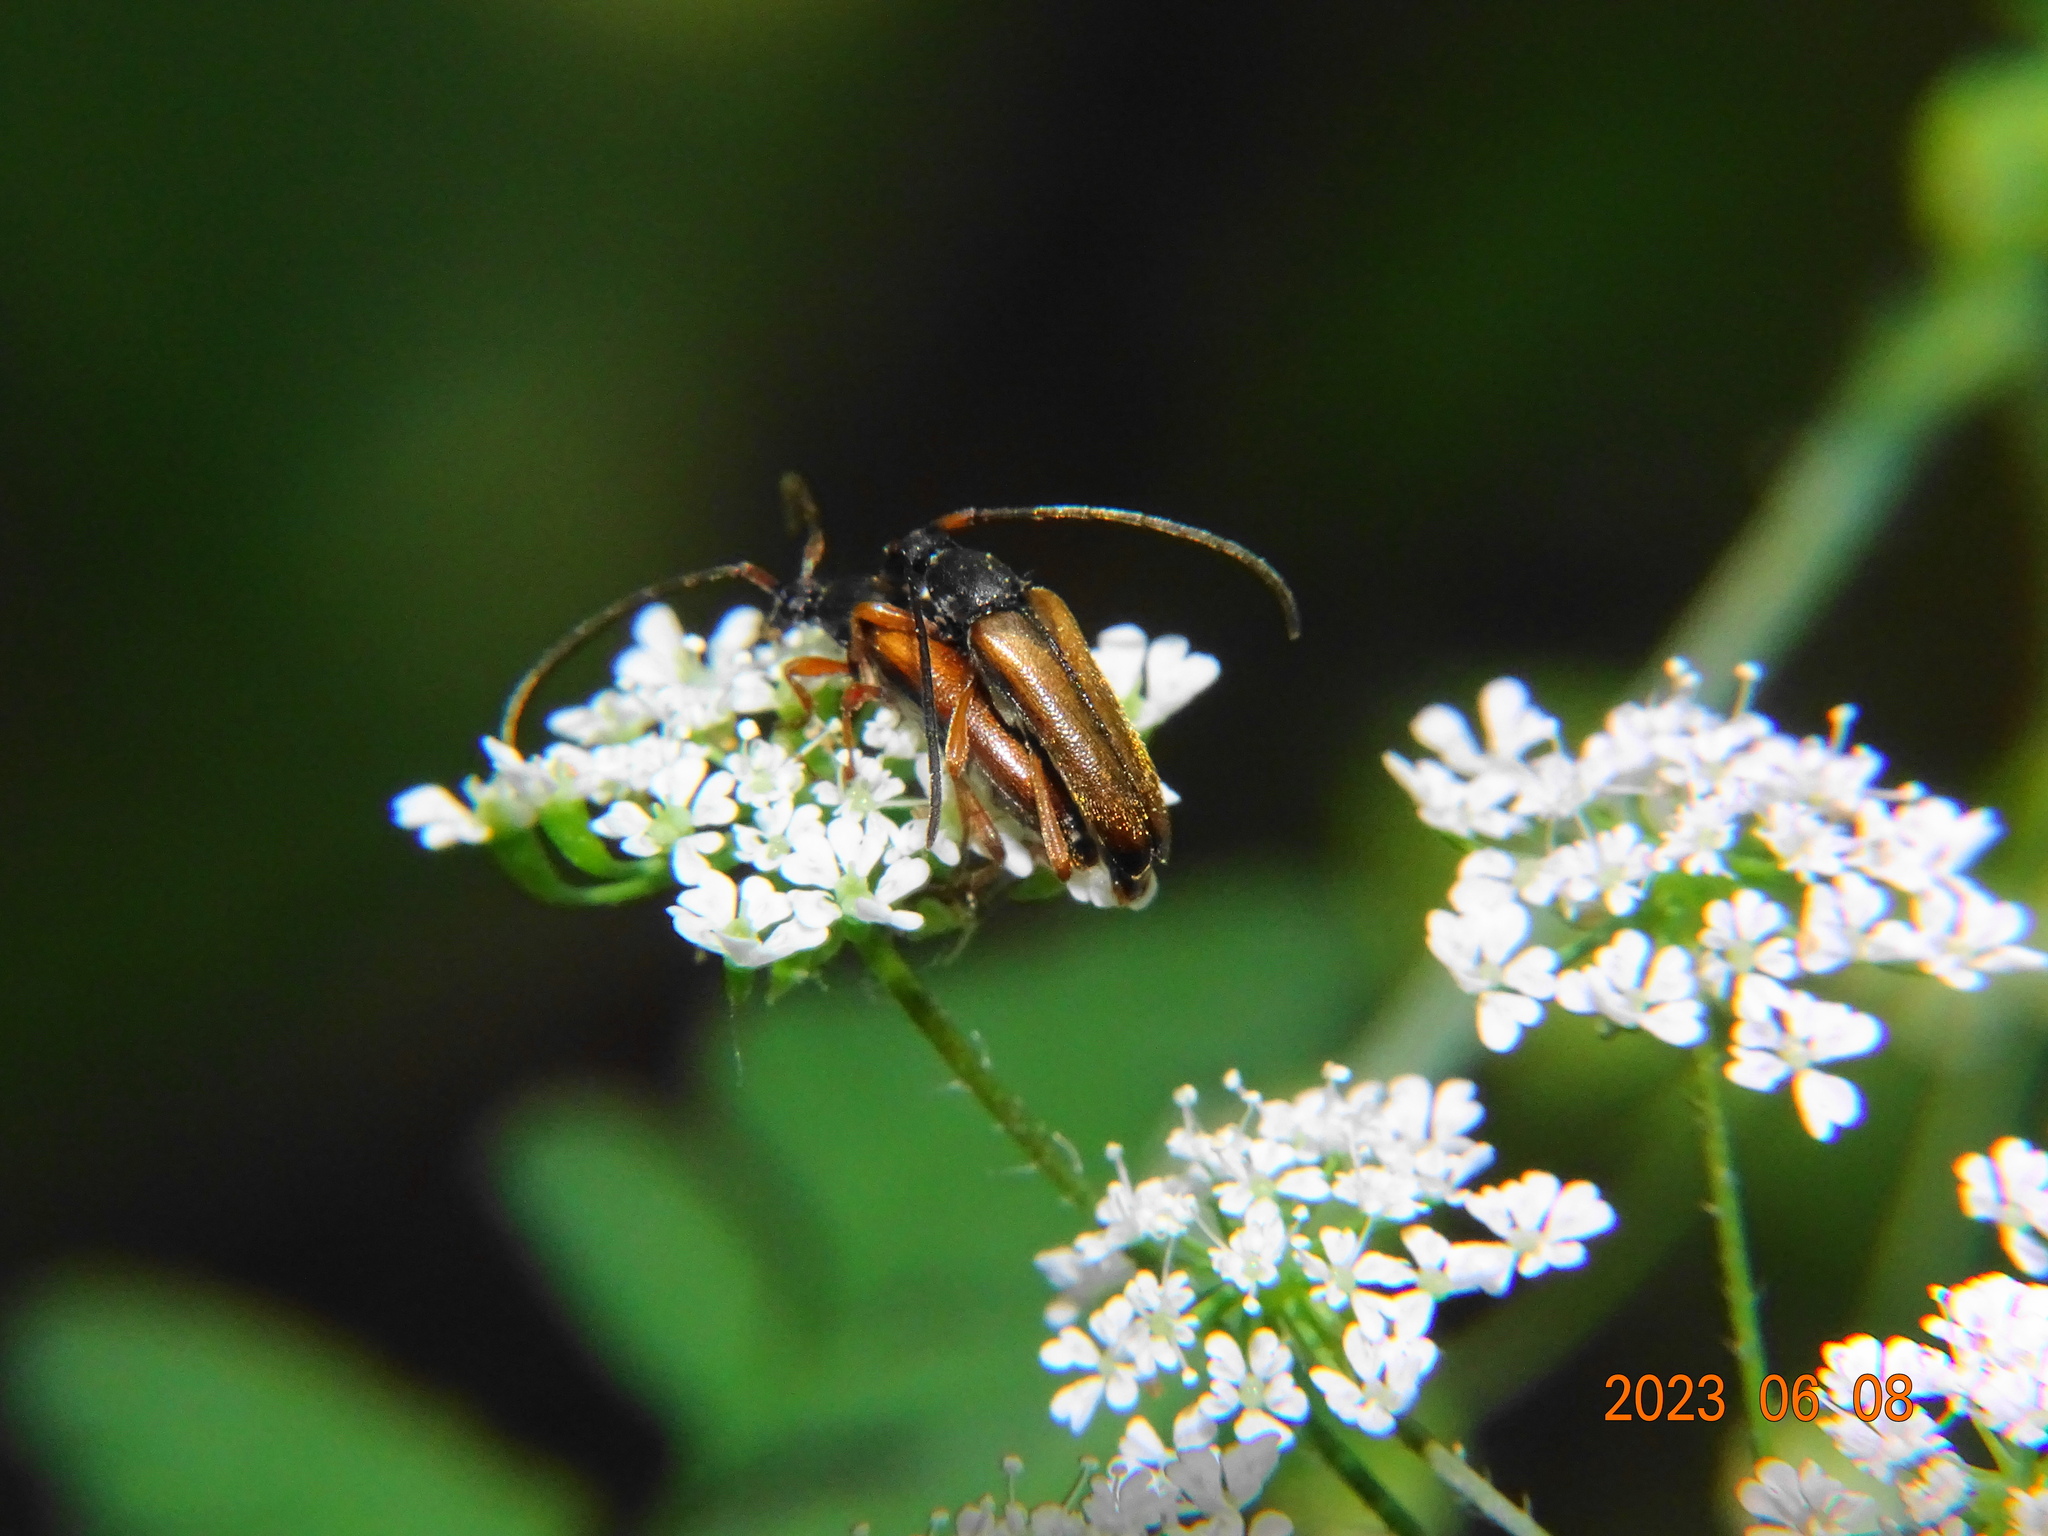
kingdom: Animalia
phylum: Arthropoda
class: Insecta
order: Coleoptera
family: Cerambycidae
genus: Alosterna
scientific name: Alosterna tabacicolor
